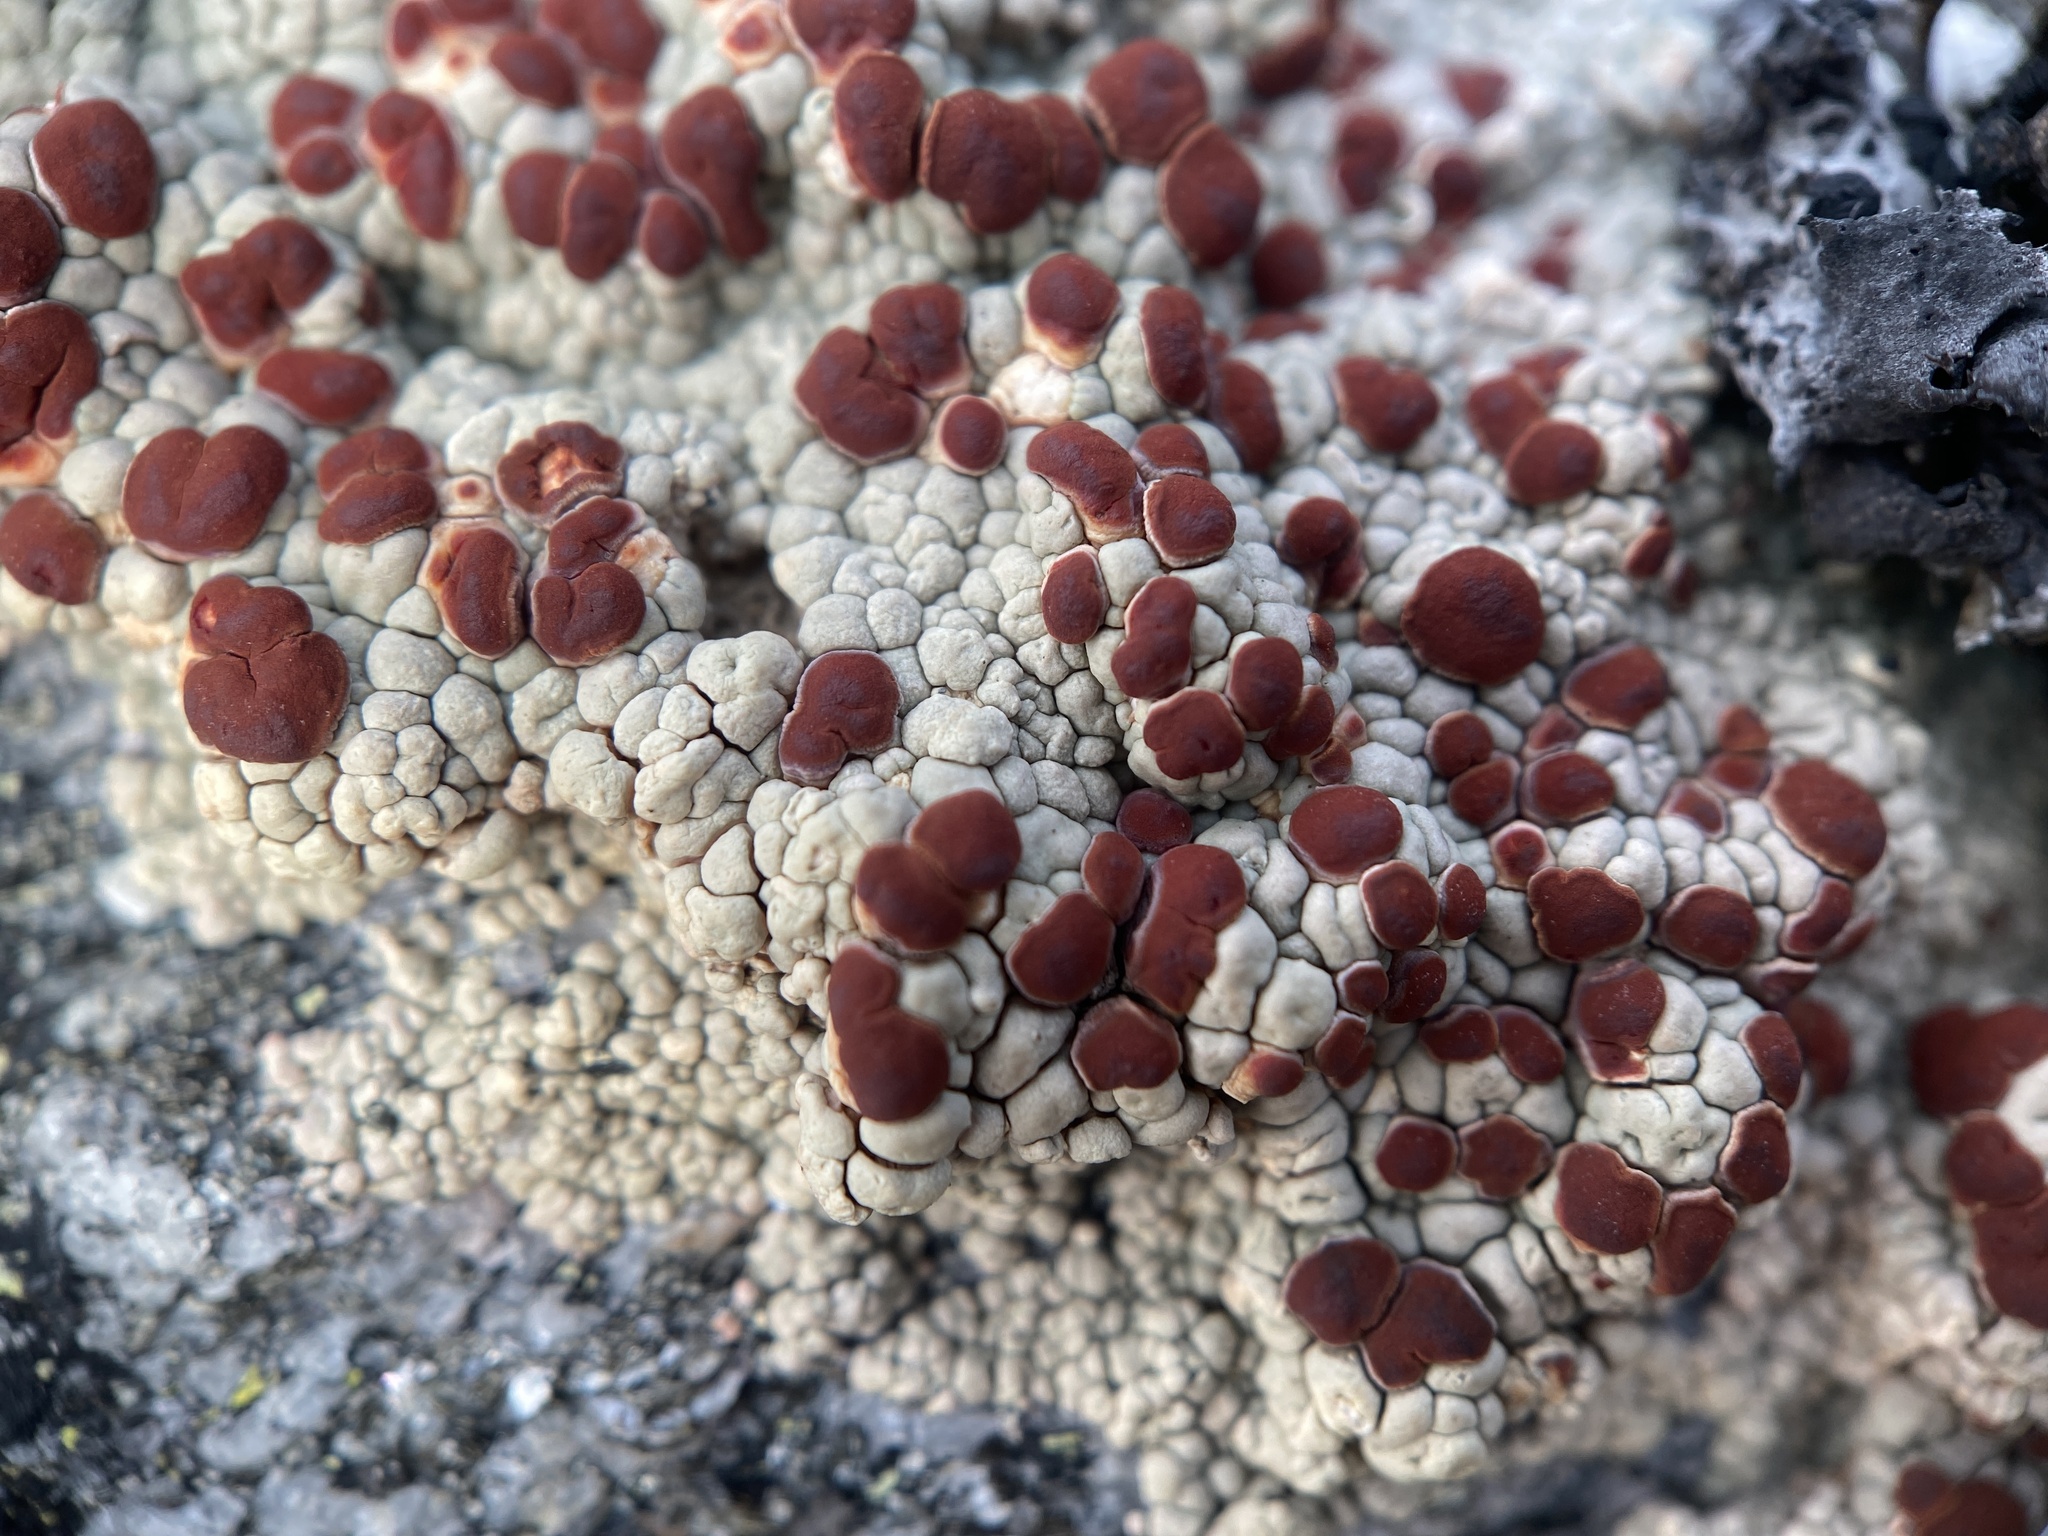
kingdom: Fungi
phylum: Ascomycota
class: Lecanoromycetes
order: Umbilicariales
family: Ophioparmaceae
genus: Ophioparma
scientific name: Ophioparma ventosa
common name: Blood-spot
